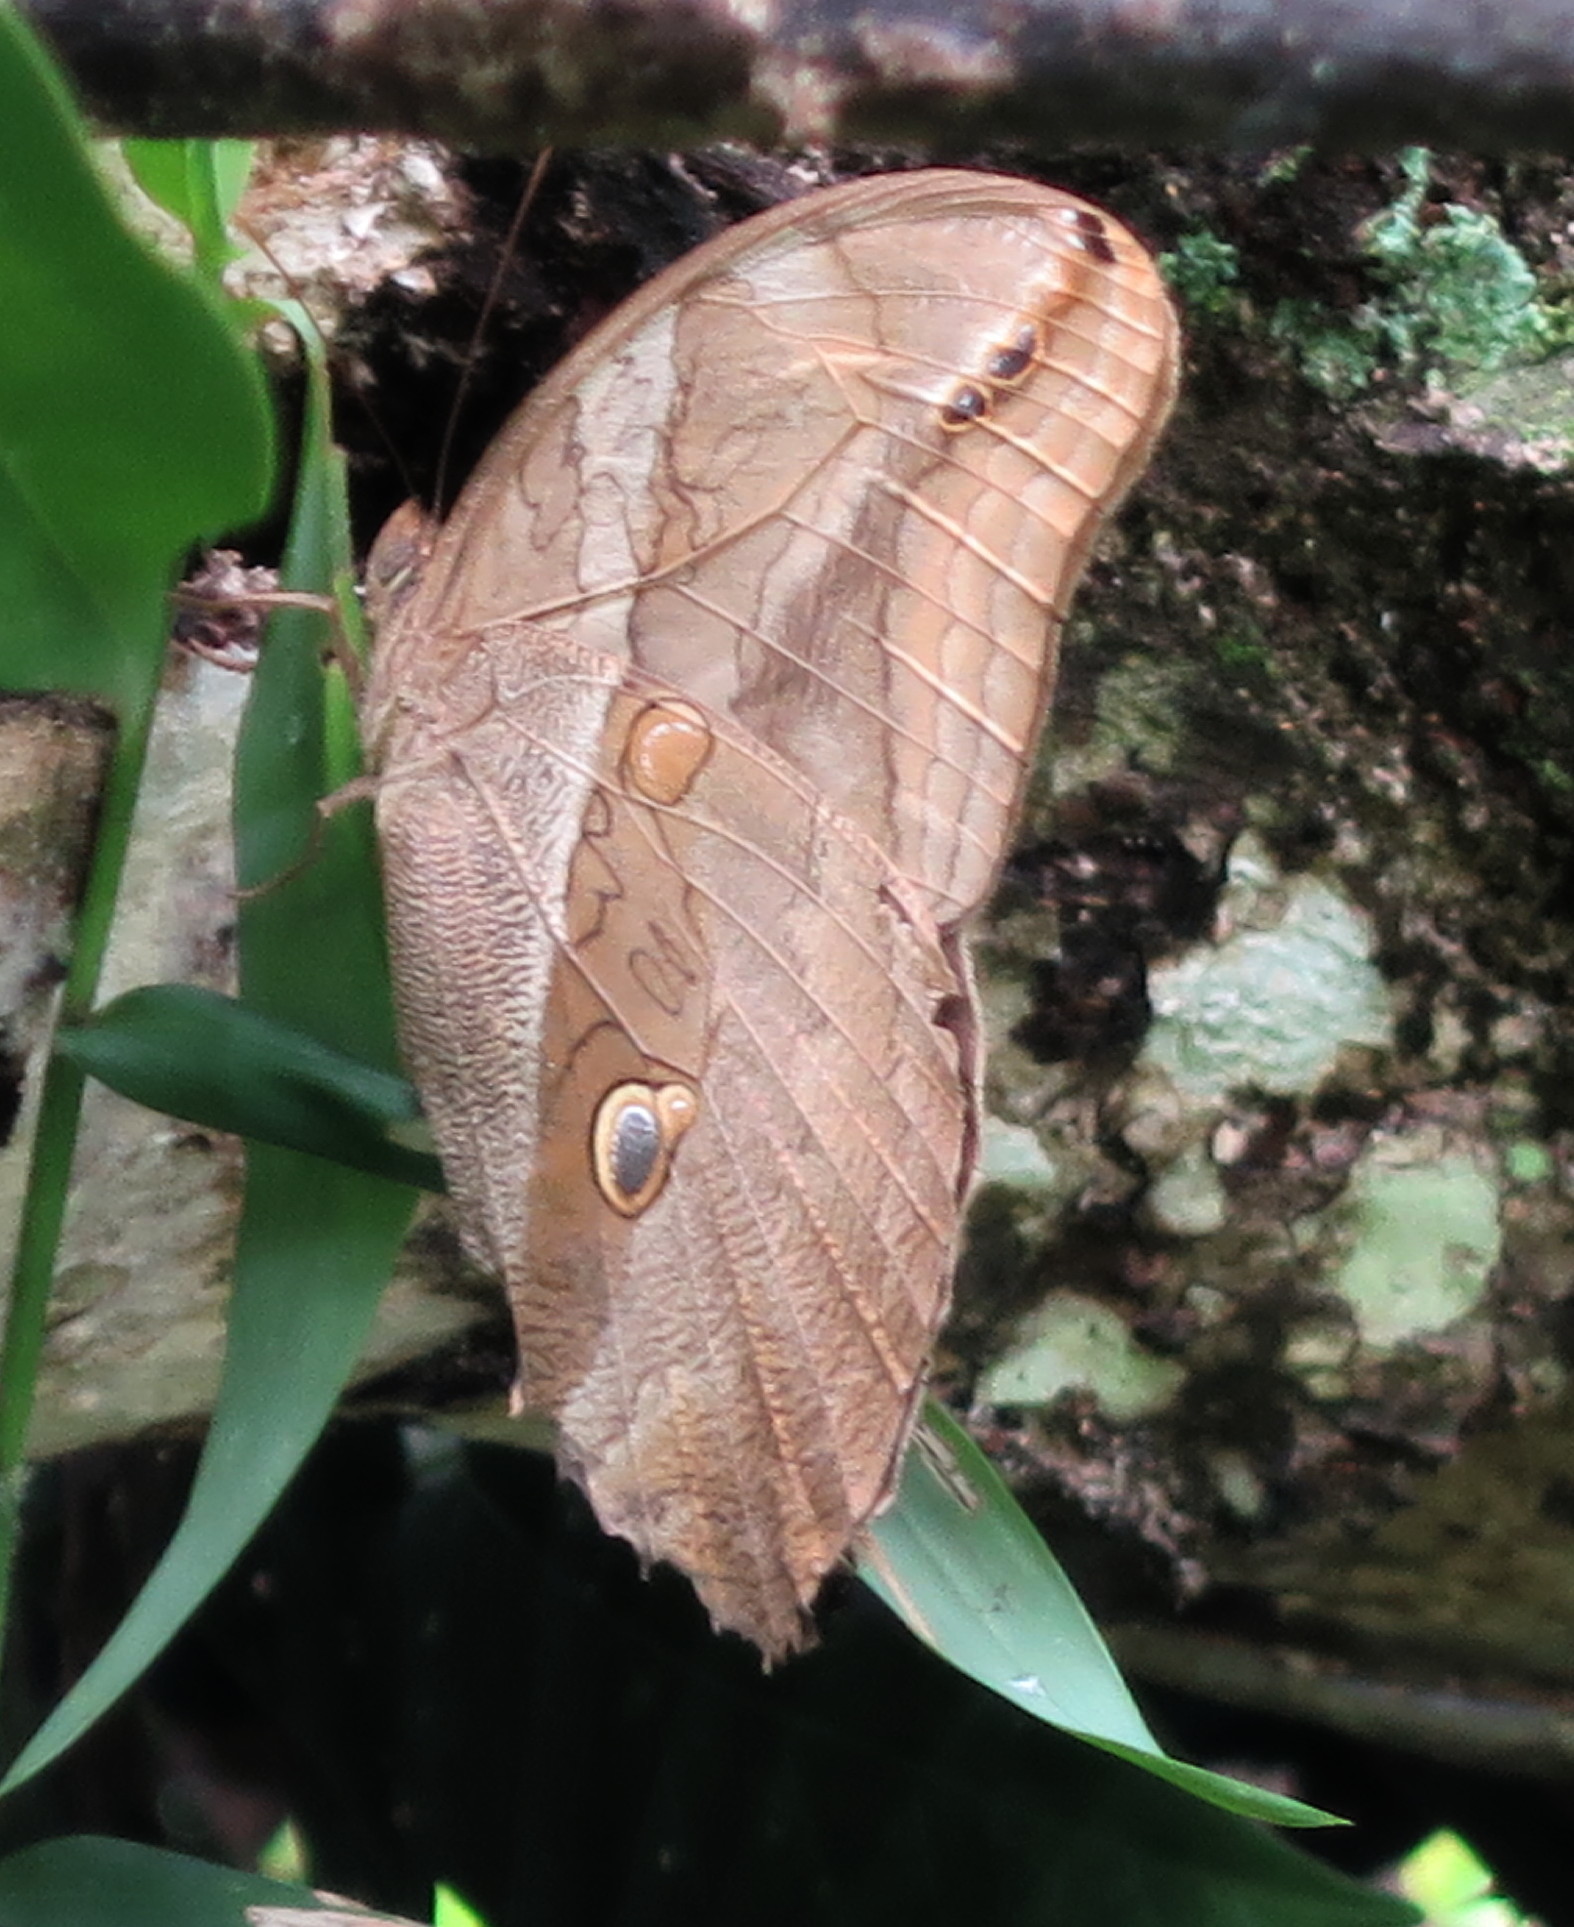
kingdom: Animalia
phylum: Arthropoda
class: Insecta
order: Lepidoptera
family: Nymphalidae
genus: Eryphanis
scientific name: Eryphanis polyxena
